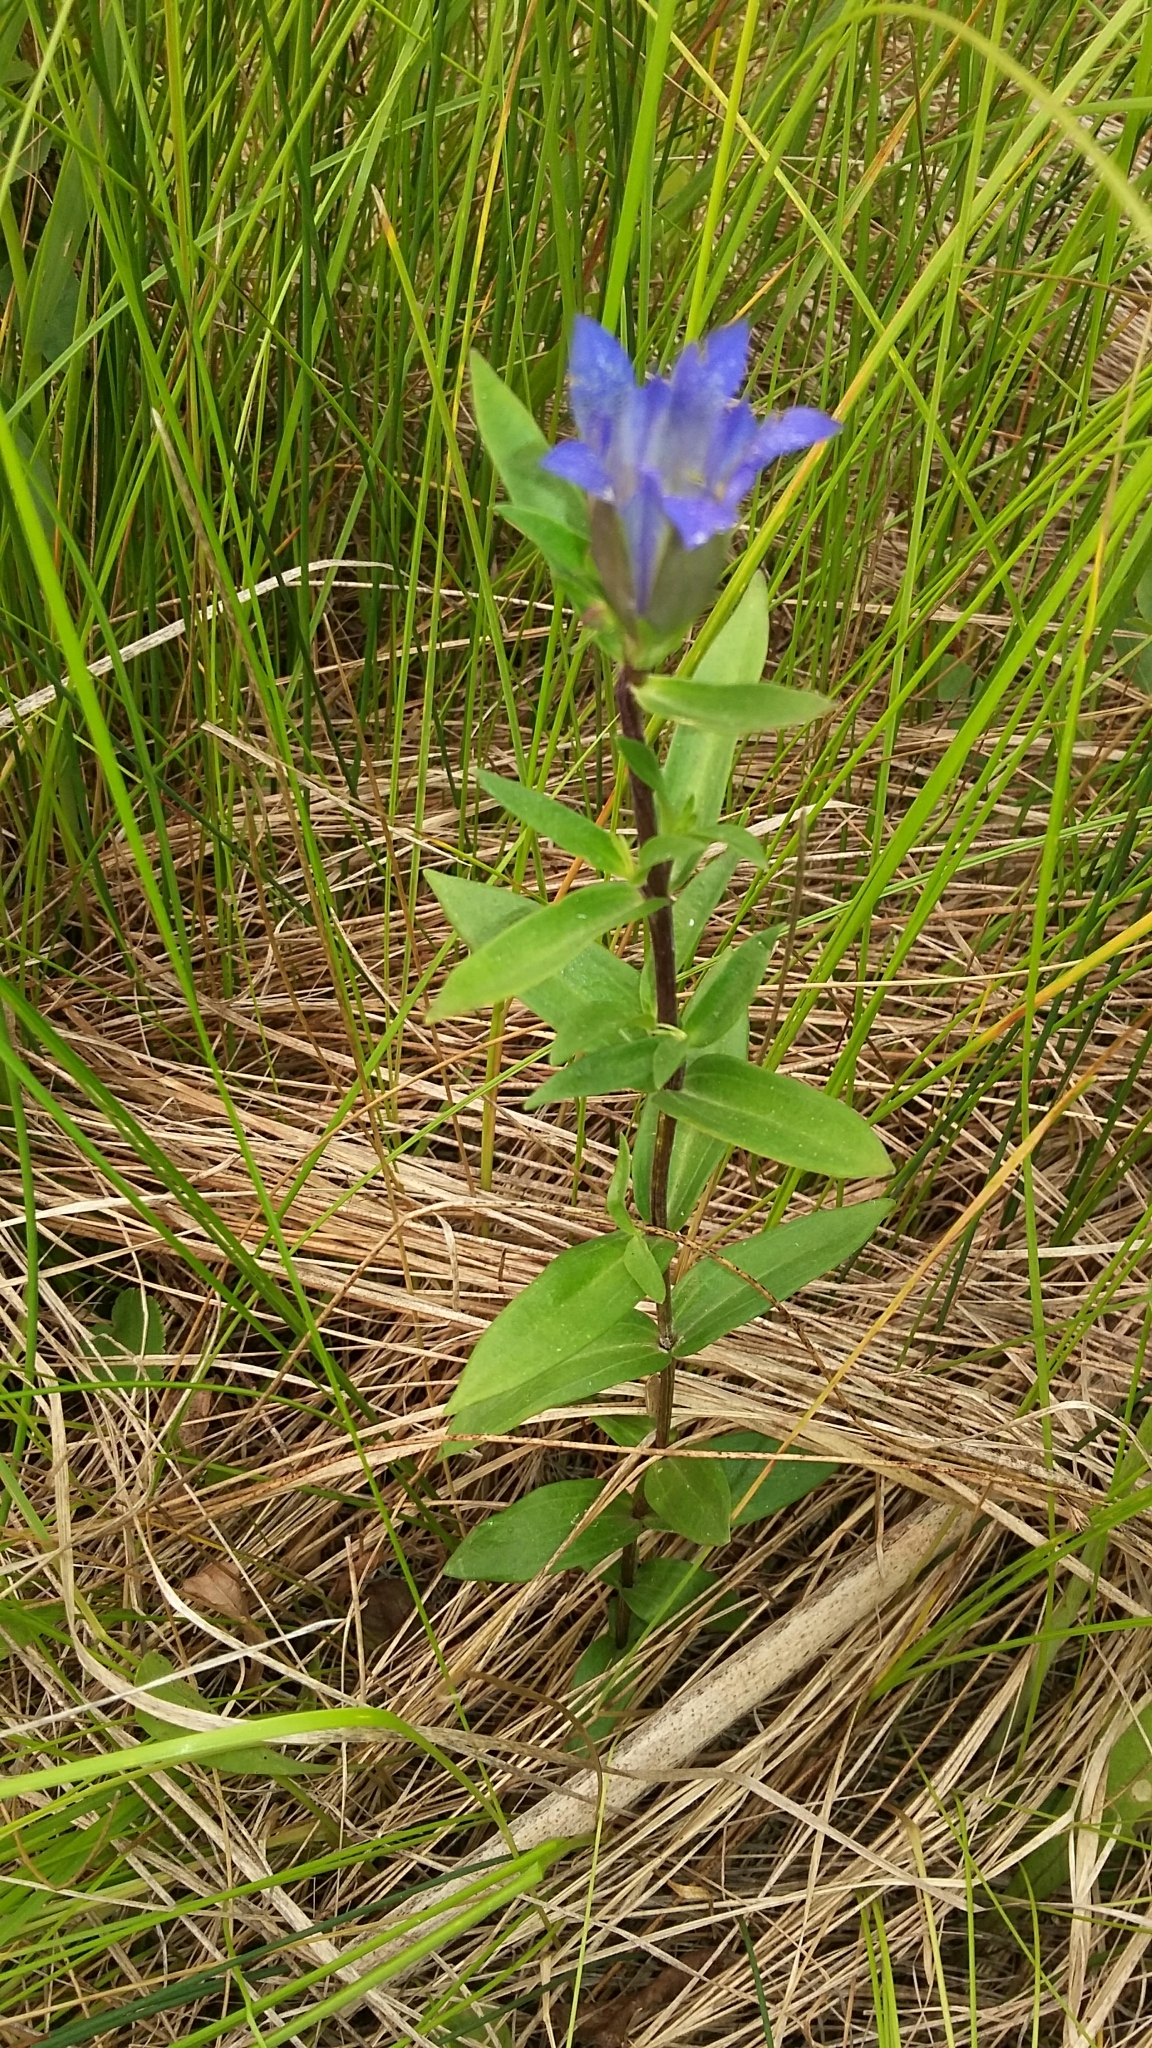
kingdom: Plantae
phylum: Tracheophyta
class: Magnoliopsida
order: Gentianales
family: Gentianaceae
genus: Gentiana
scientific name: Gentiana affinis
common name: Rocky mountain gentian
